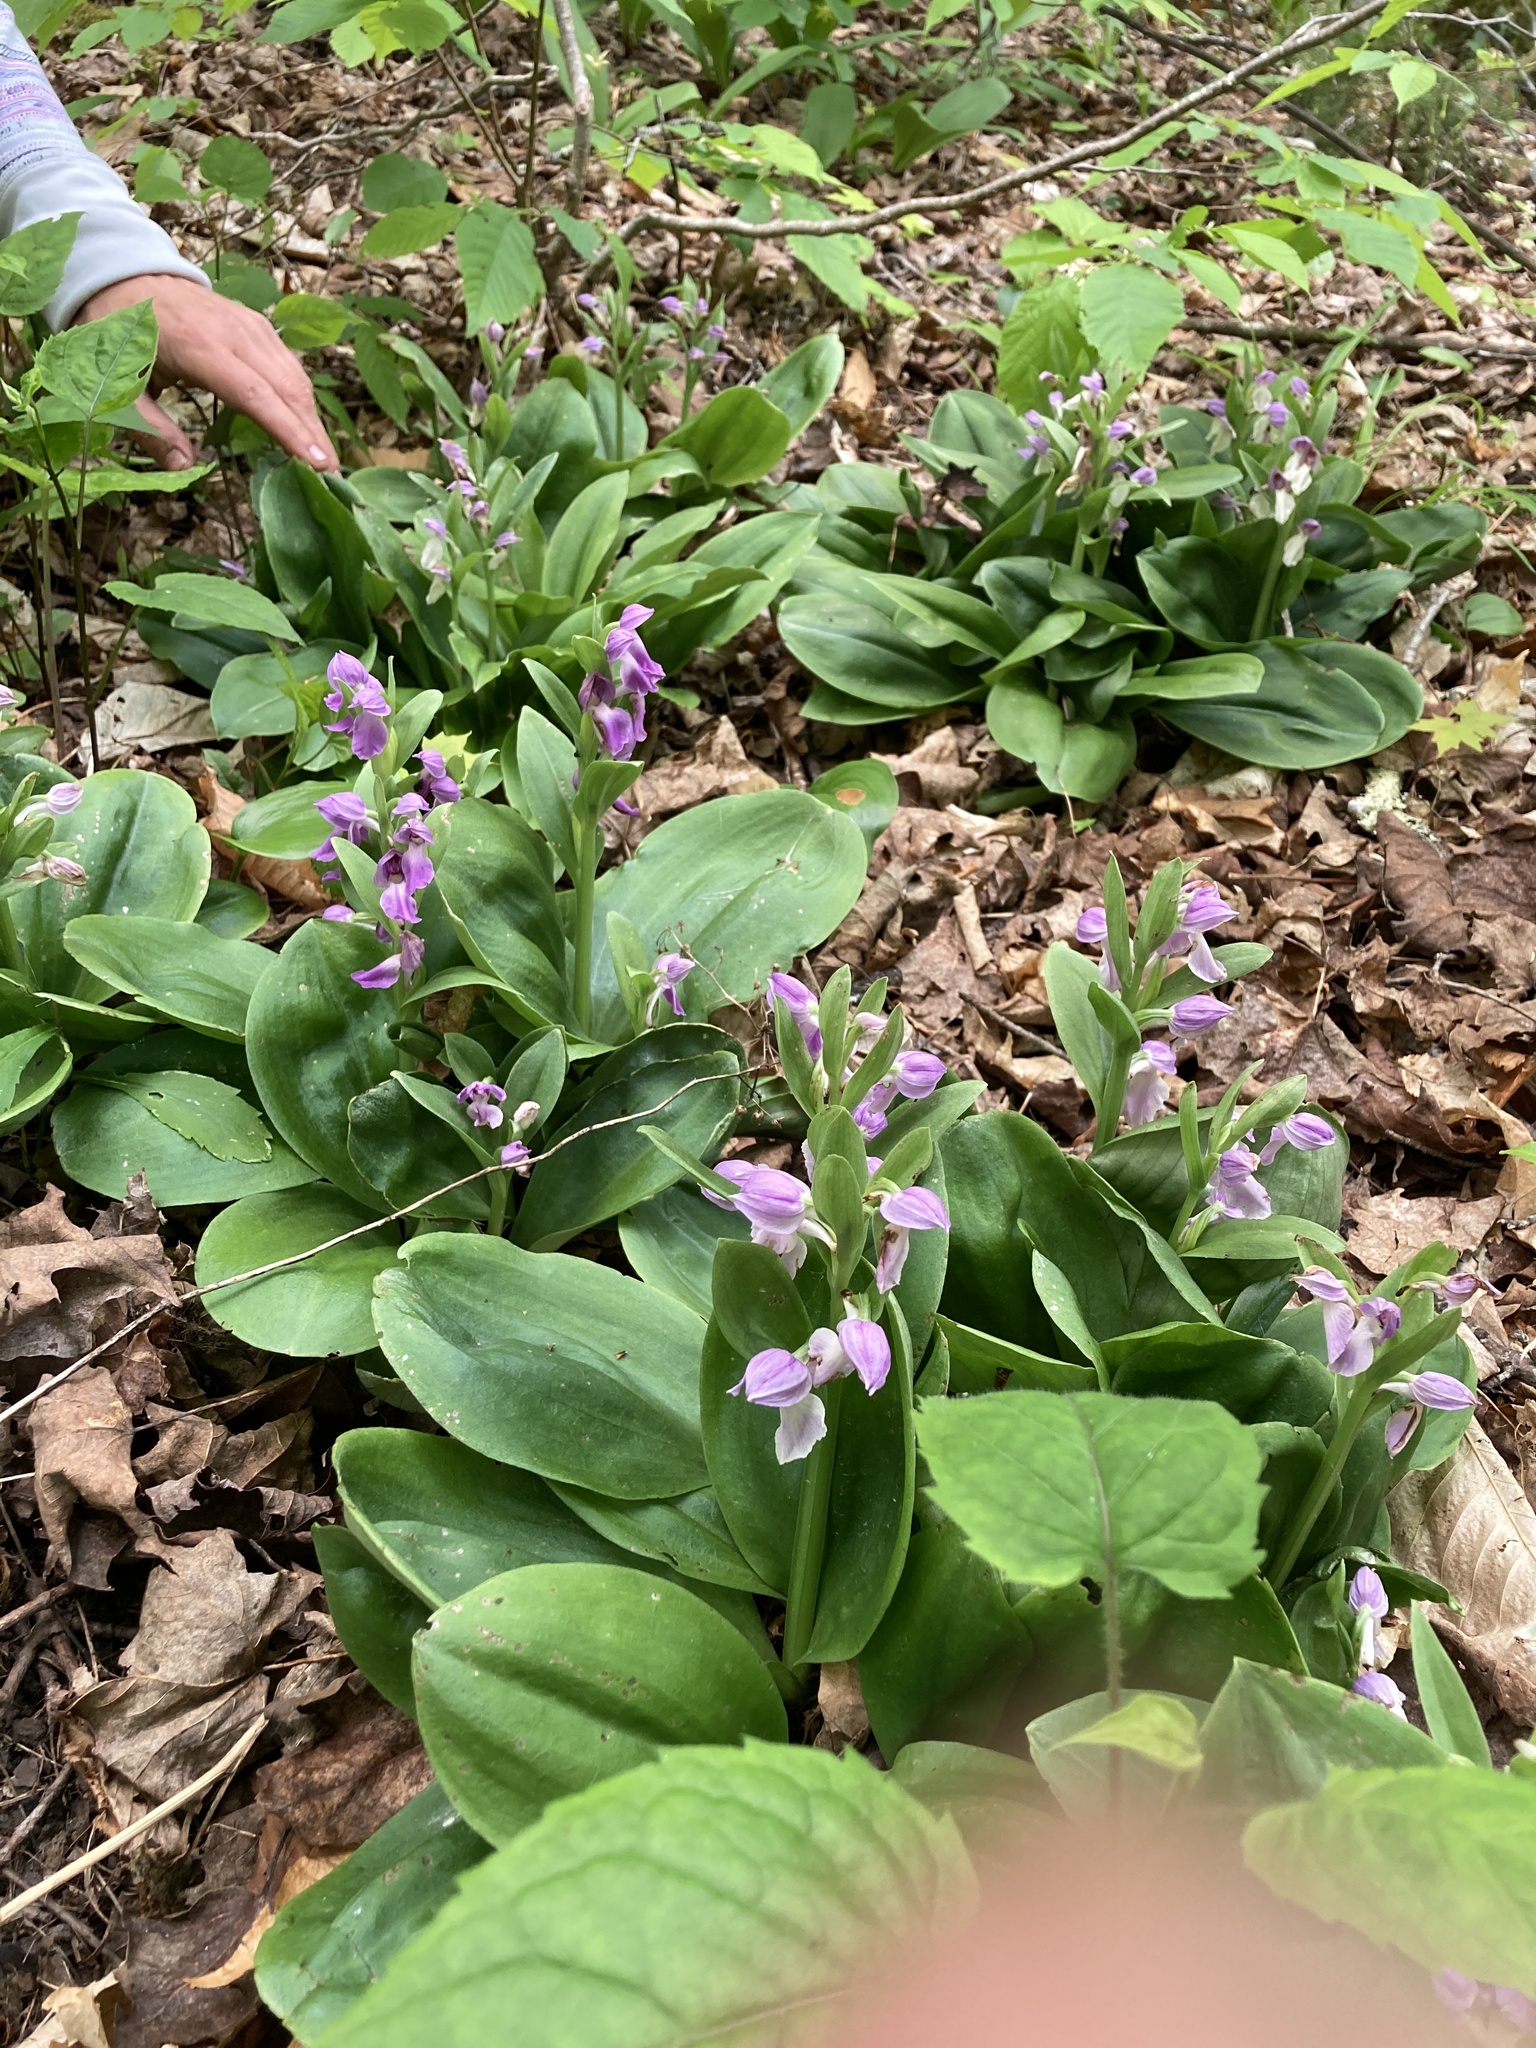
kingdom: Plantae
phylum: Tracheophyta
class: Liliopsida
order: Asparagales
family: Orchidaceae
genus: Galearis
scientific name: Galearis spectabilis
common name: Purple-hooded orchis
